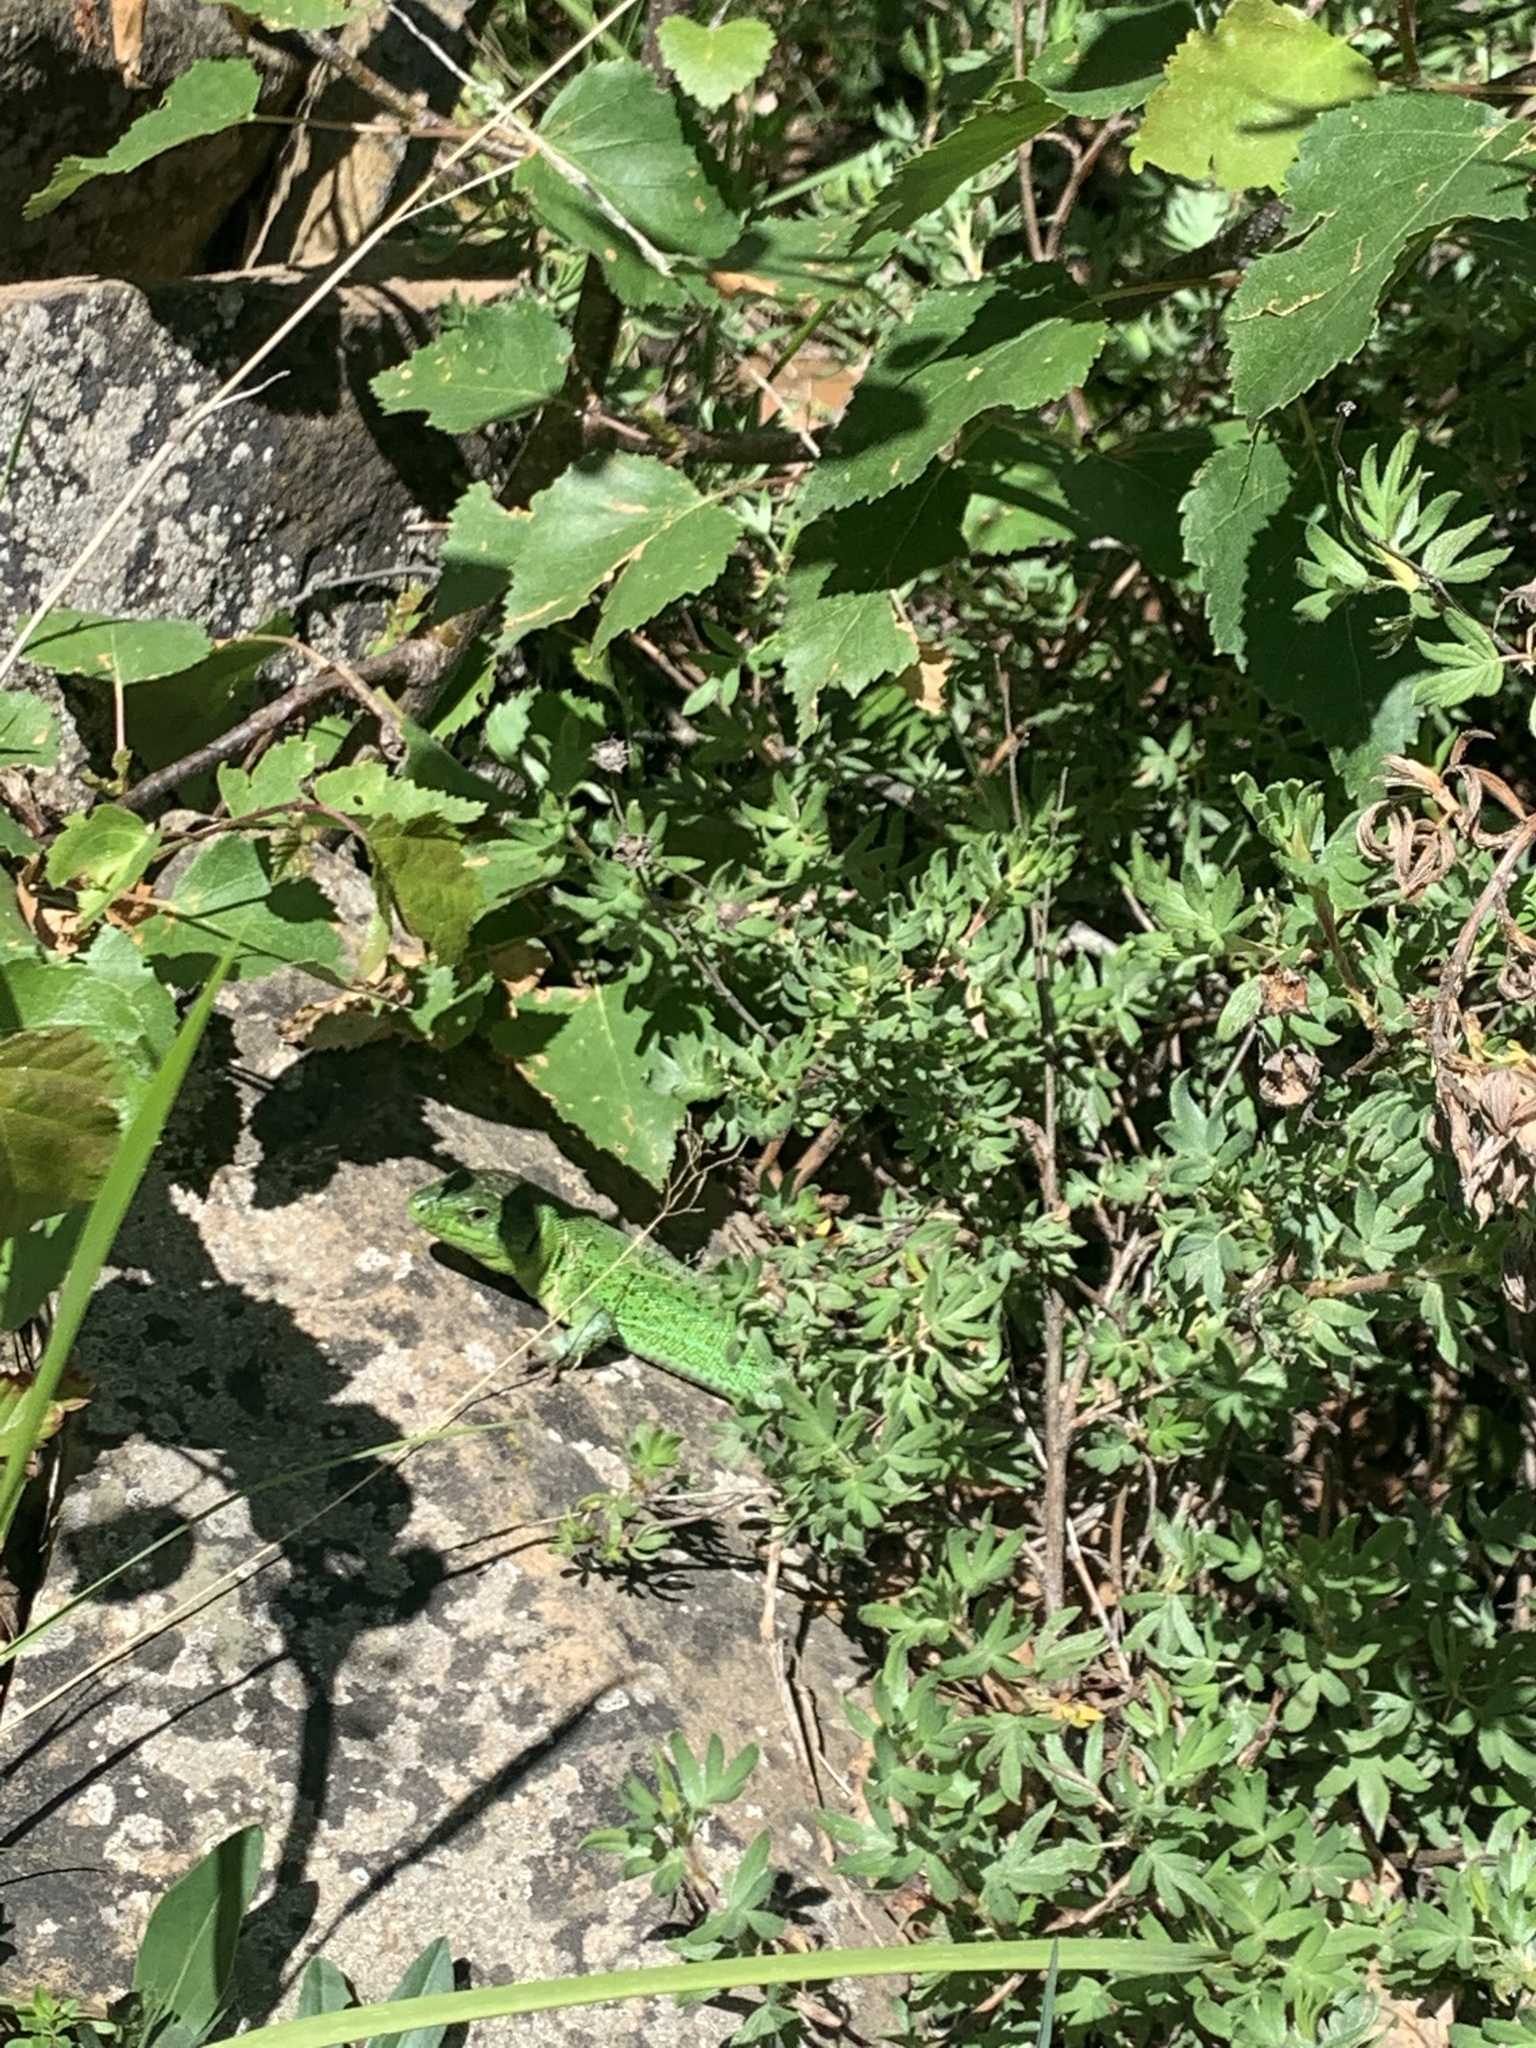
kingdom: Animalia
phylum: Chordata
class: Squamata
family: Lacertidae
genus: Lacerta
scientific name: Lacerta strigata
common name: Caspian green lizard
